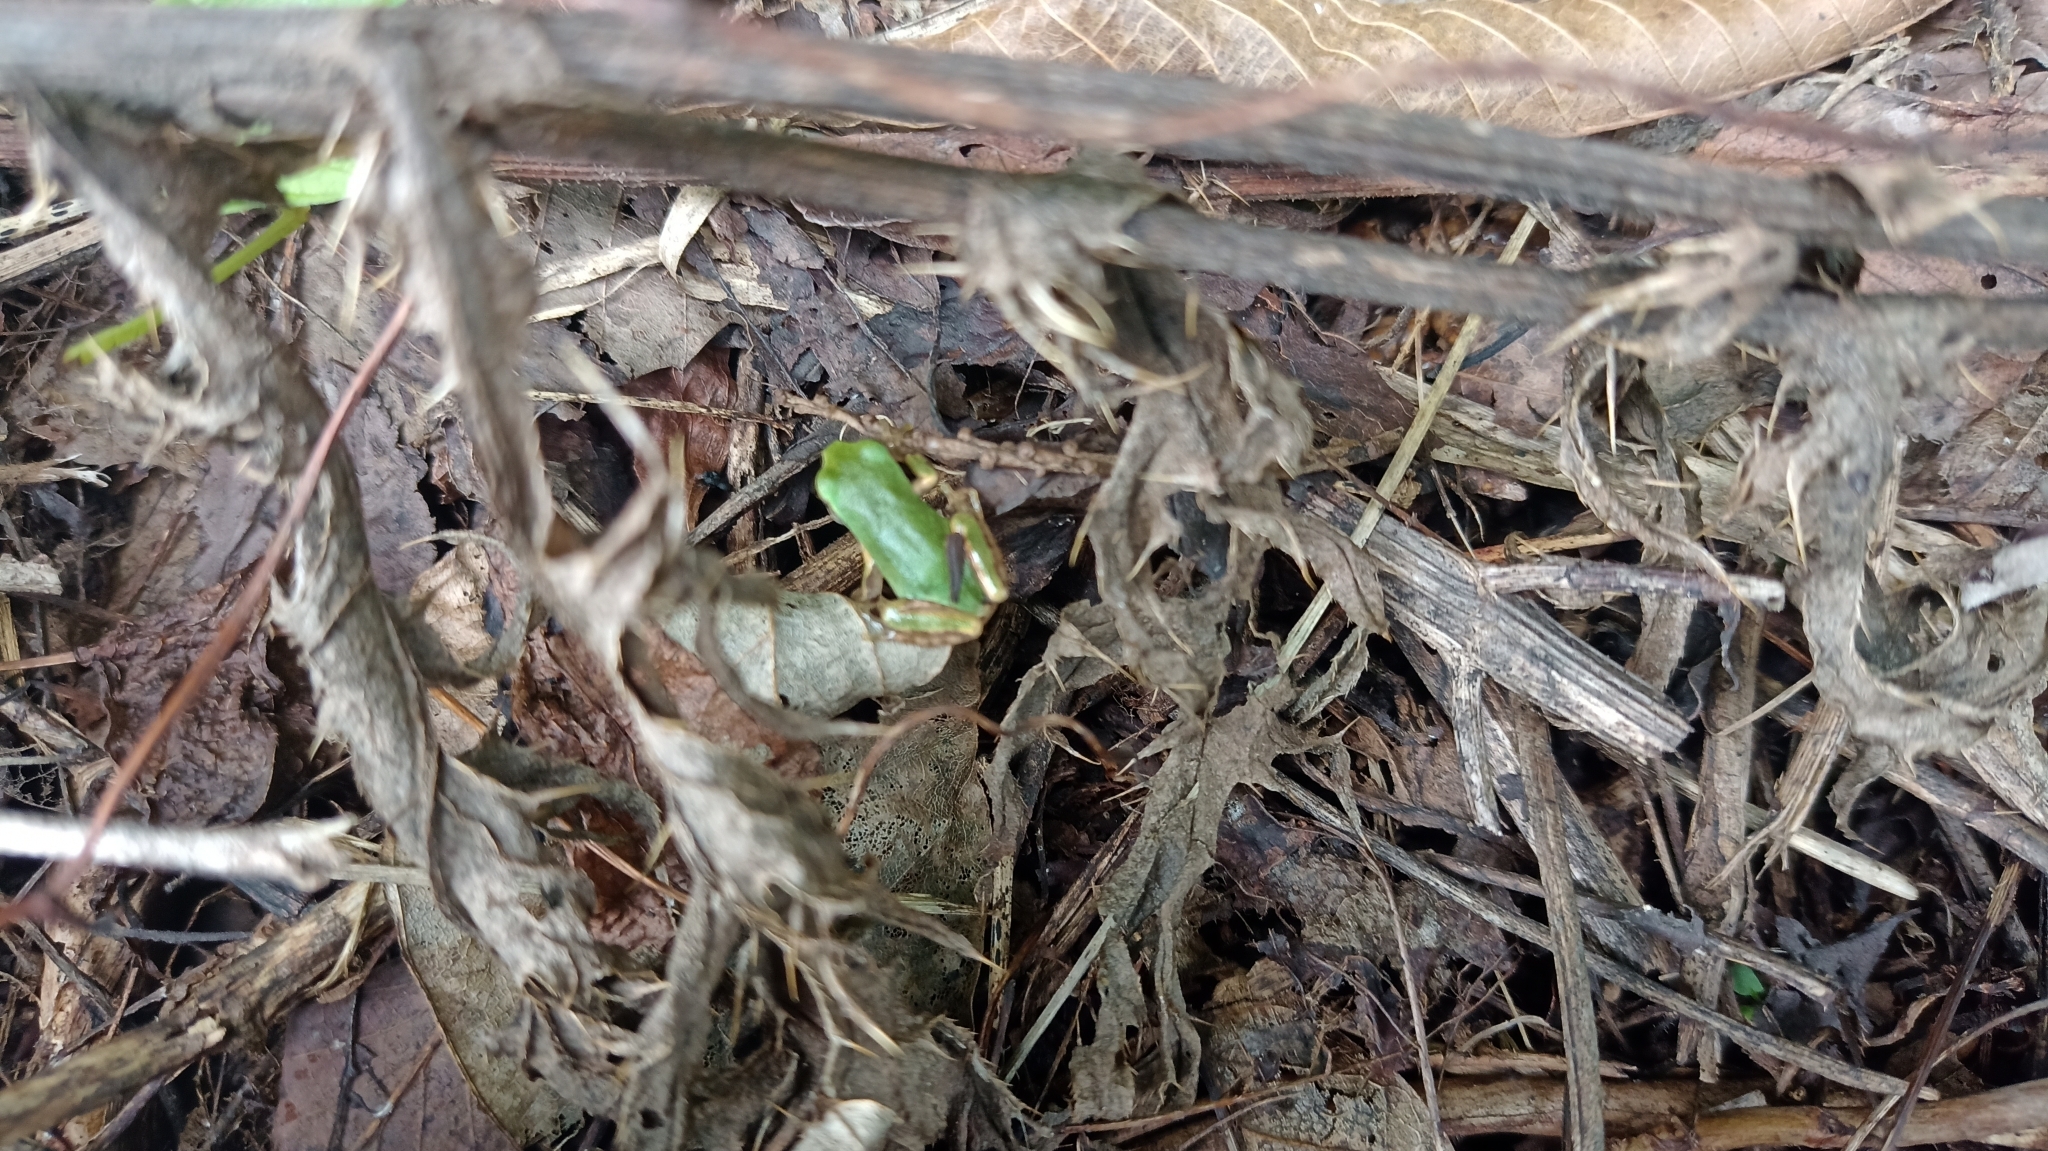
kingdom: Animalia
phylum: Chordata
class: Amphibia
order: Anura
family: Hylidae
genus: Dryophytes
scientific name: Dryophytes japonicus
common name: Japanese treefrog
